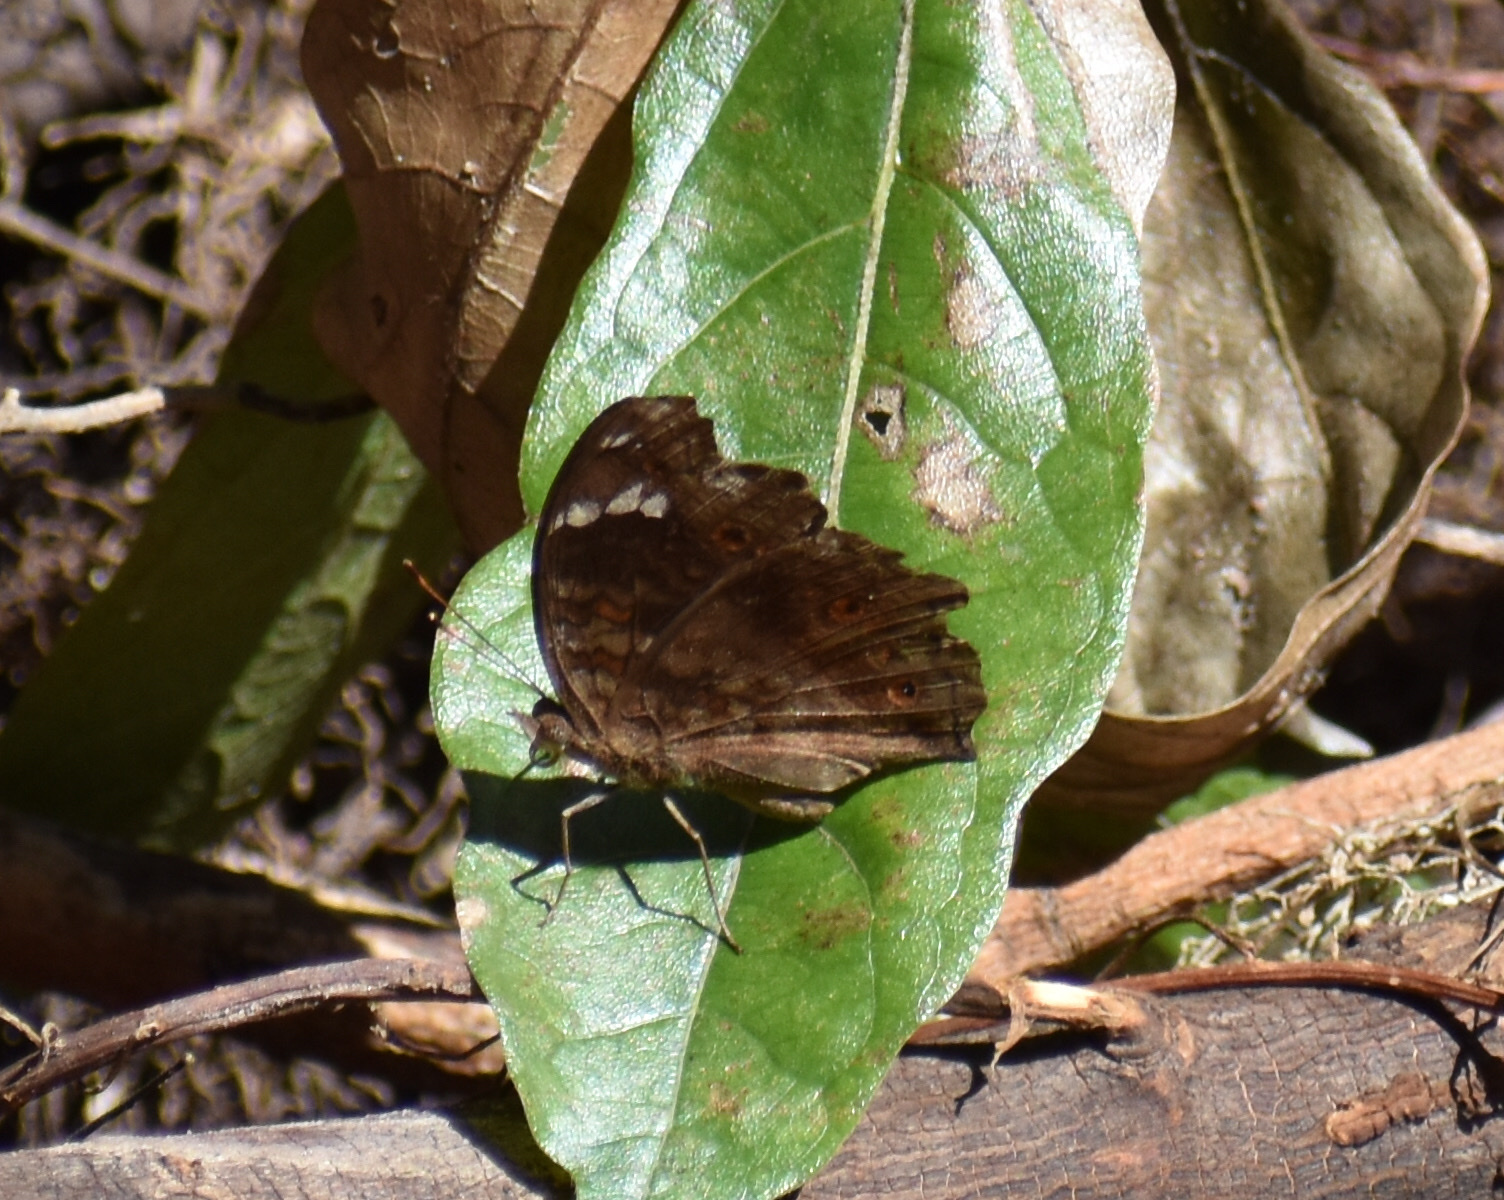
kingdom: Animalia
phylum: Arthropoda
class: Insecta
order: Lepidoptera
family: Nymphalidae
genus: Junonia
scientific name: Junonia natalica
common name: Brown pansy
